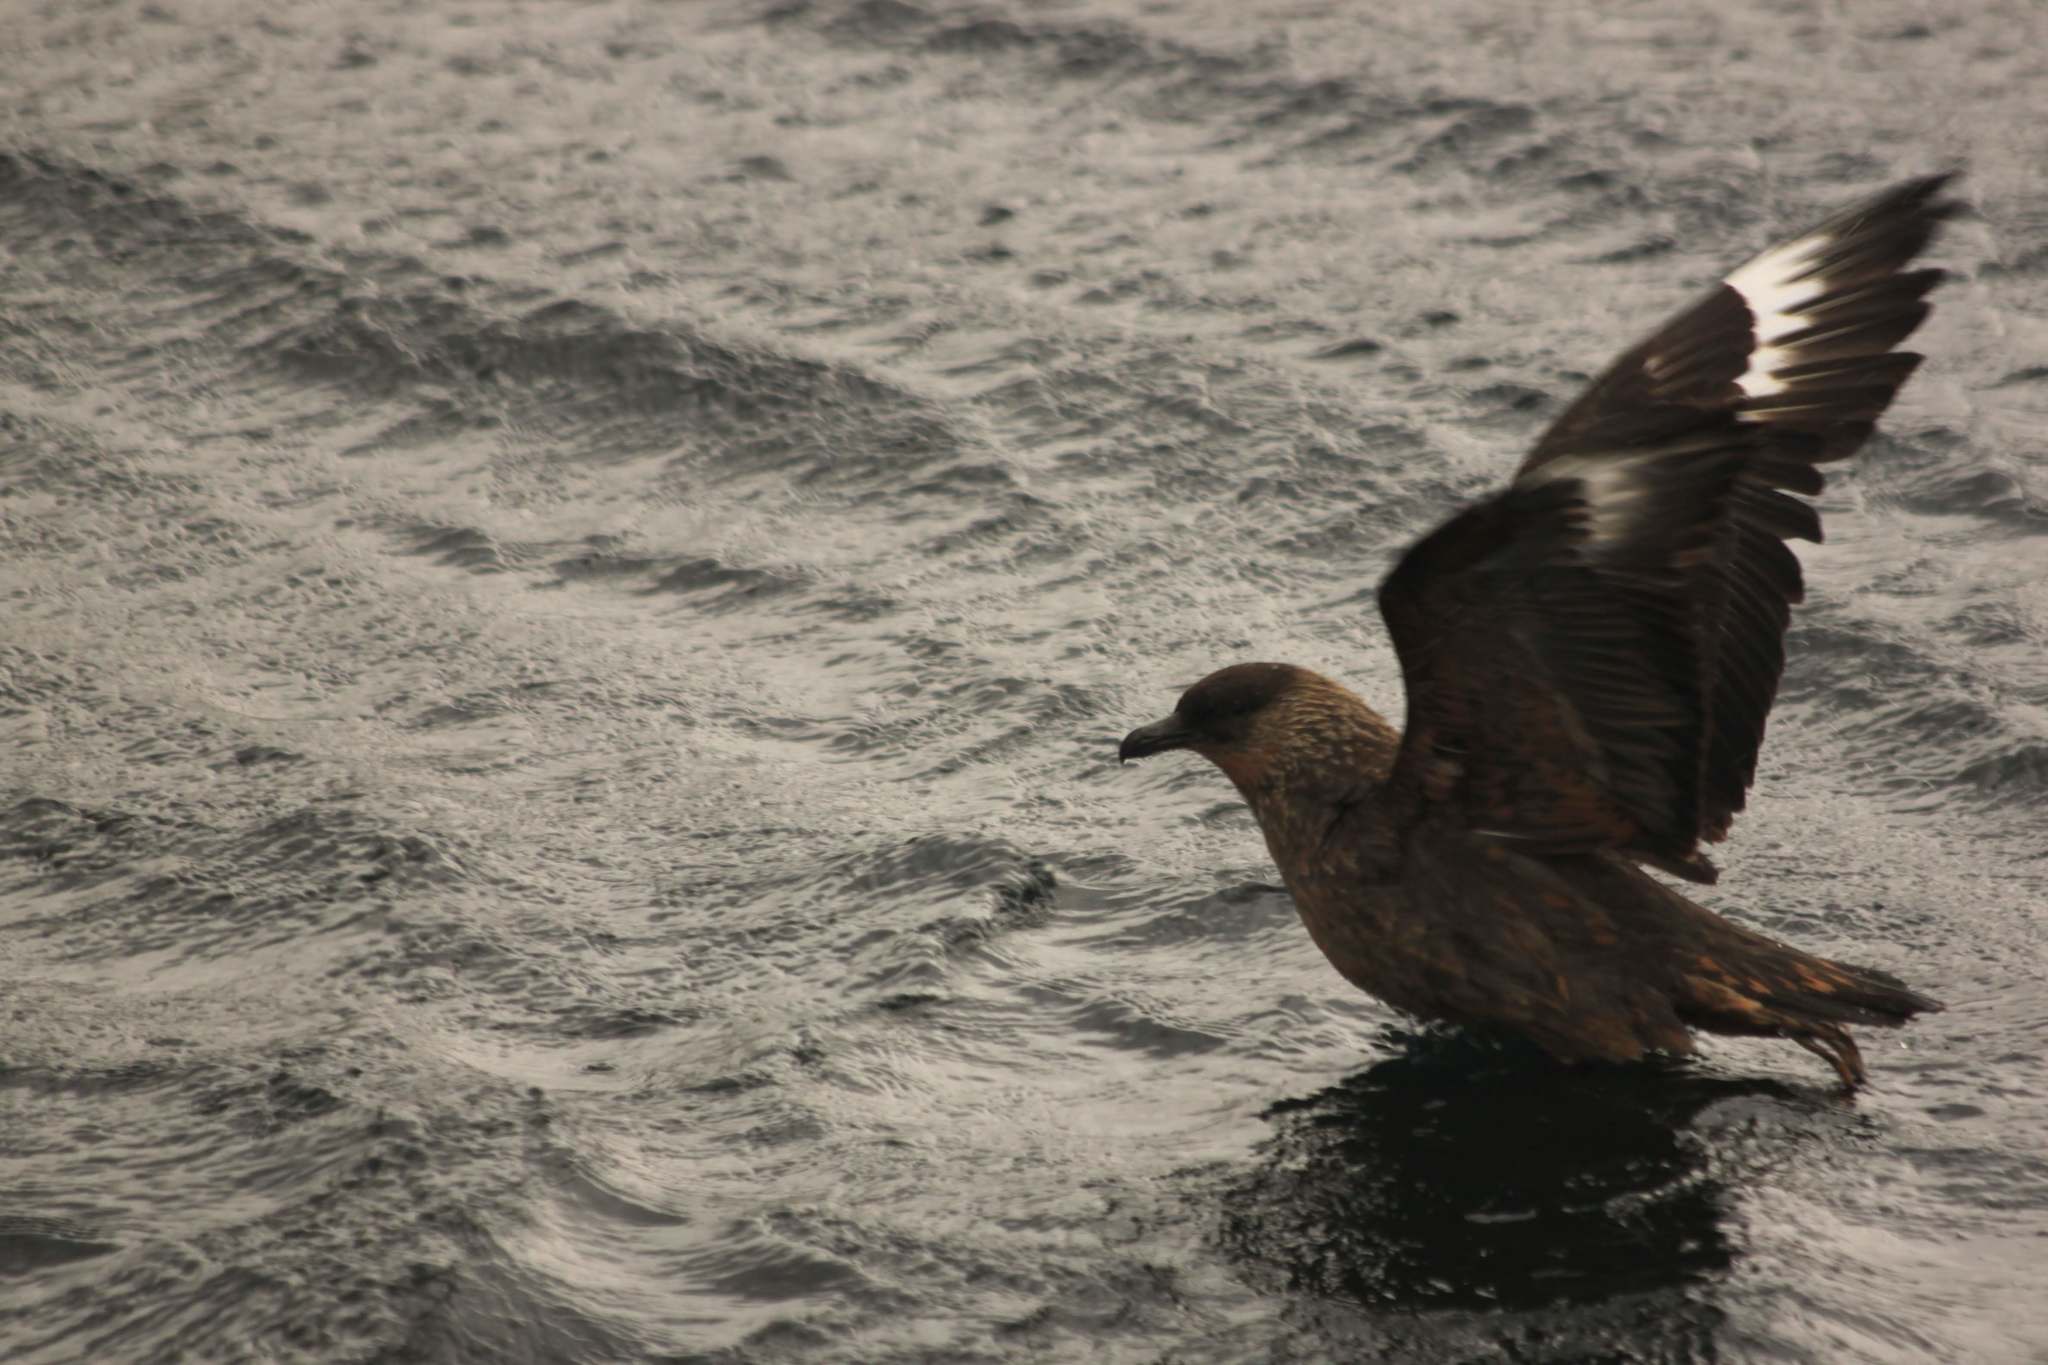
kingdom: Animalia
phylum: Chordata
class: Aves
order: Charadriiformes
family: Stercorariidae
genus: Stercorarius
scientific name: Stercorarius chilensis
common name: Chilean skua
